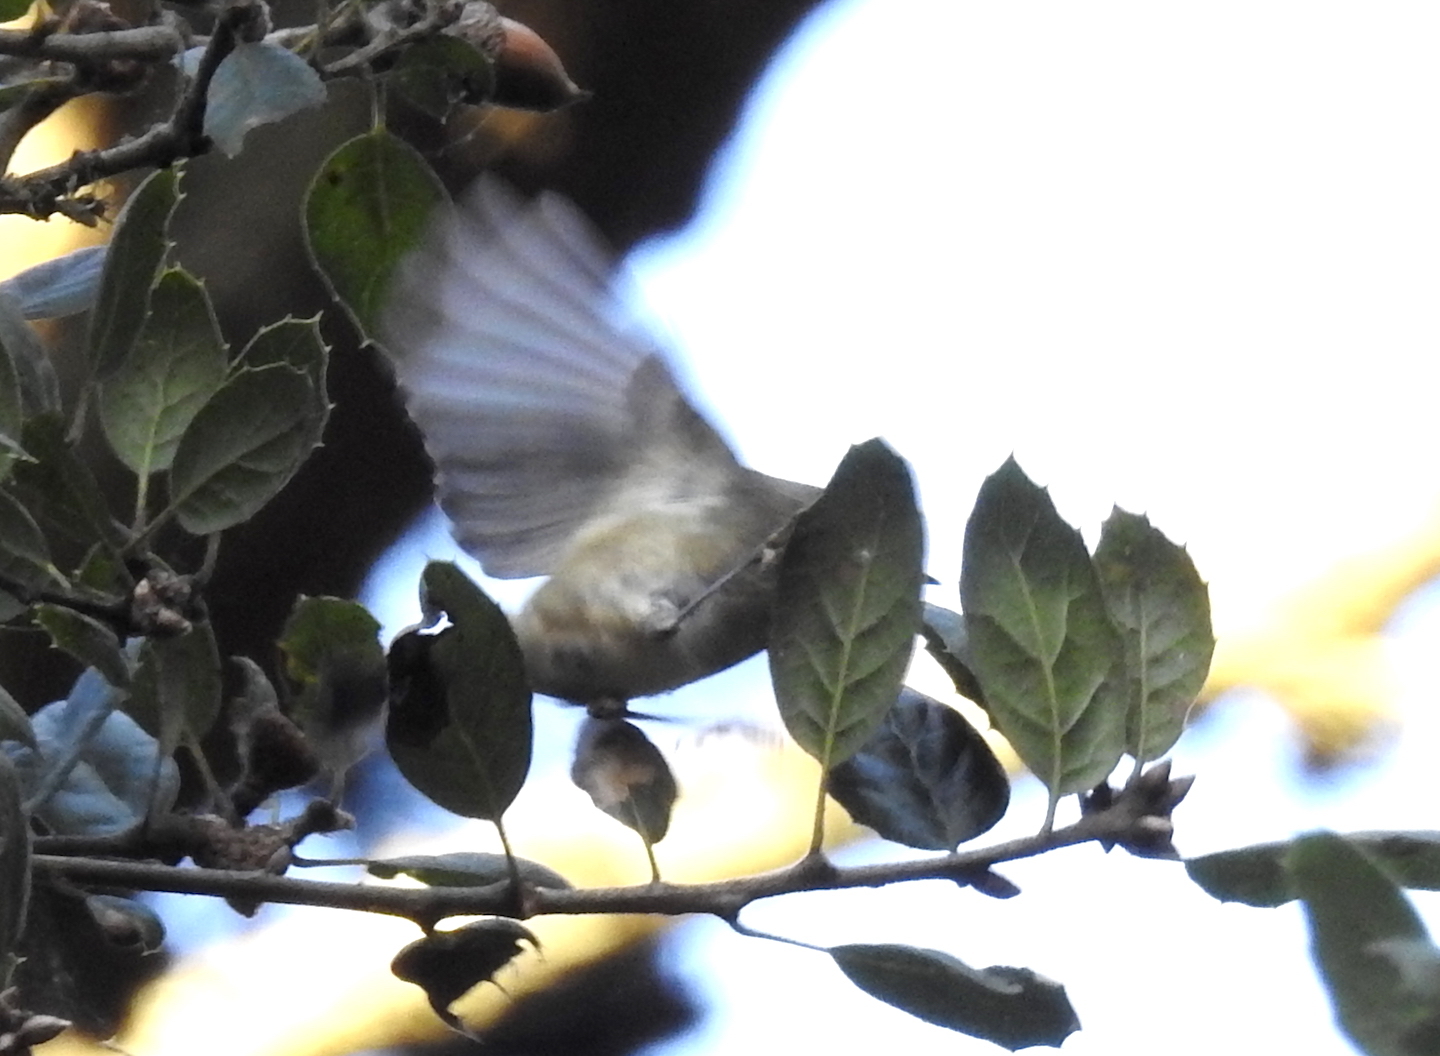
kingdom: Animalia
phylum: Chordata
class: Aves
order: Passeriformes
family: Regulidae
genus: Regulus
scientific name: Regulus calendula
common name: Ruby-crowned kinglet
